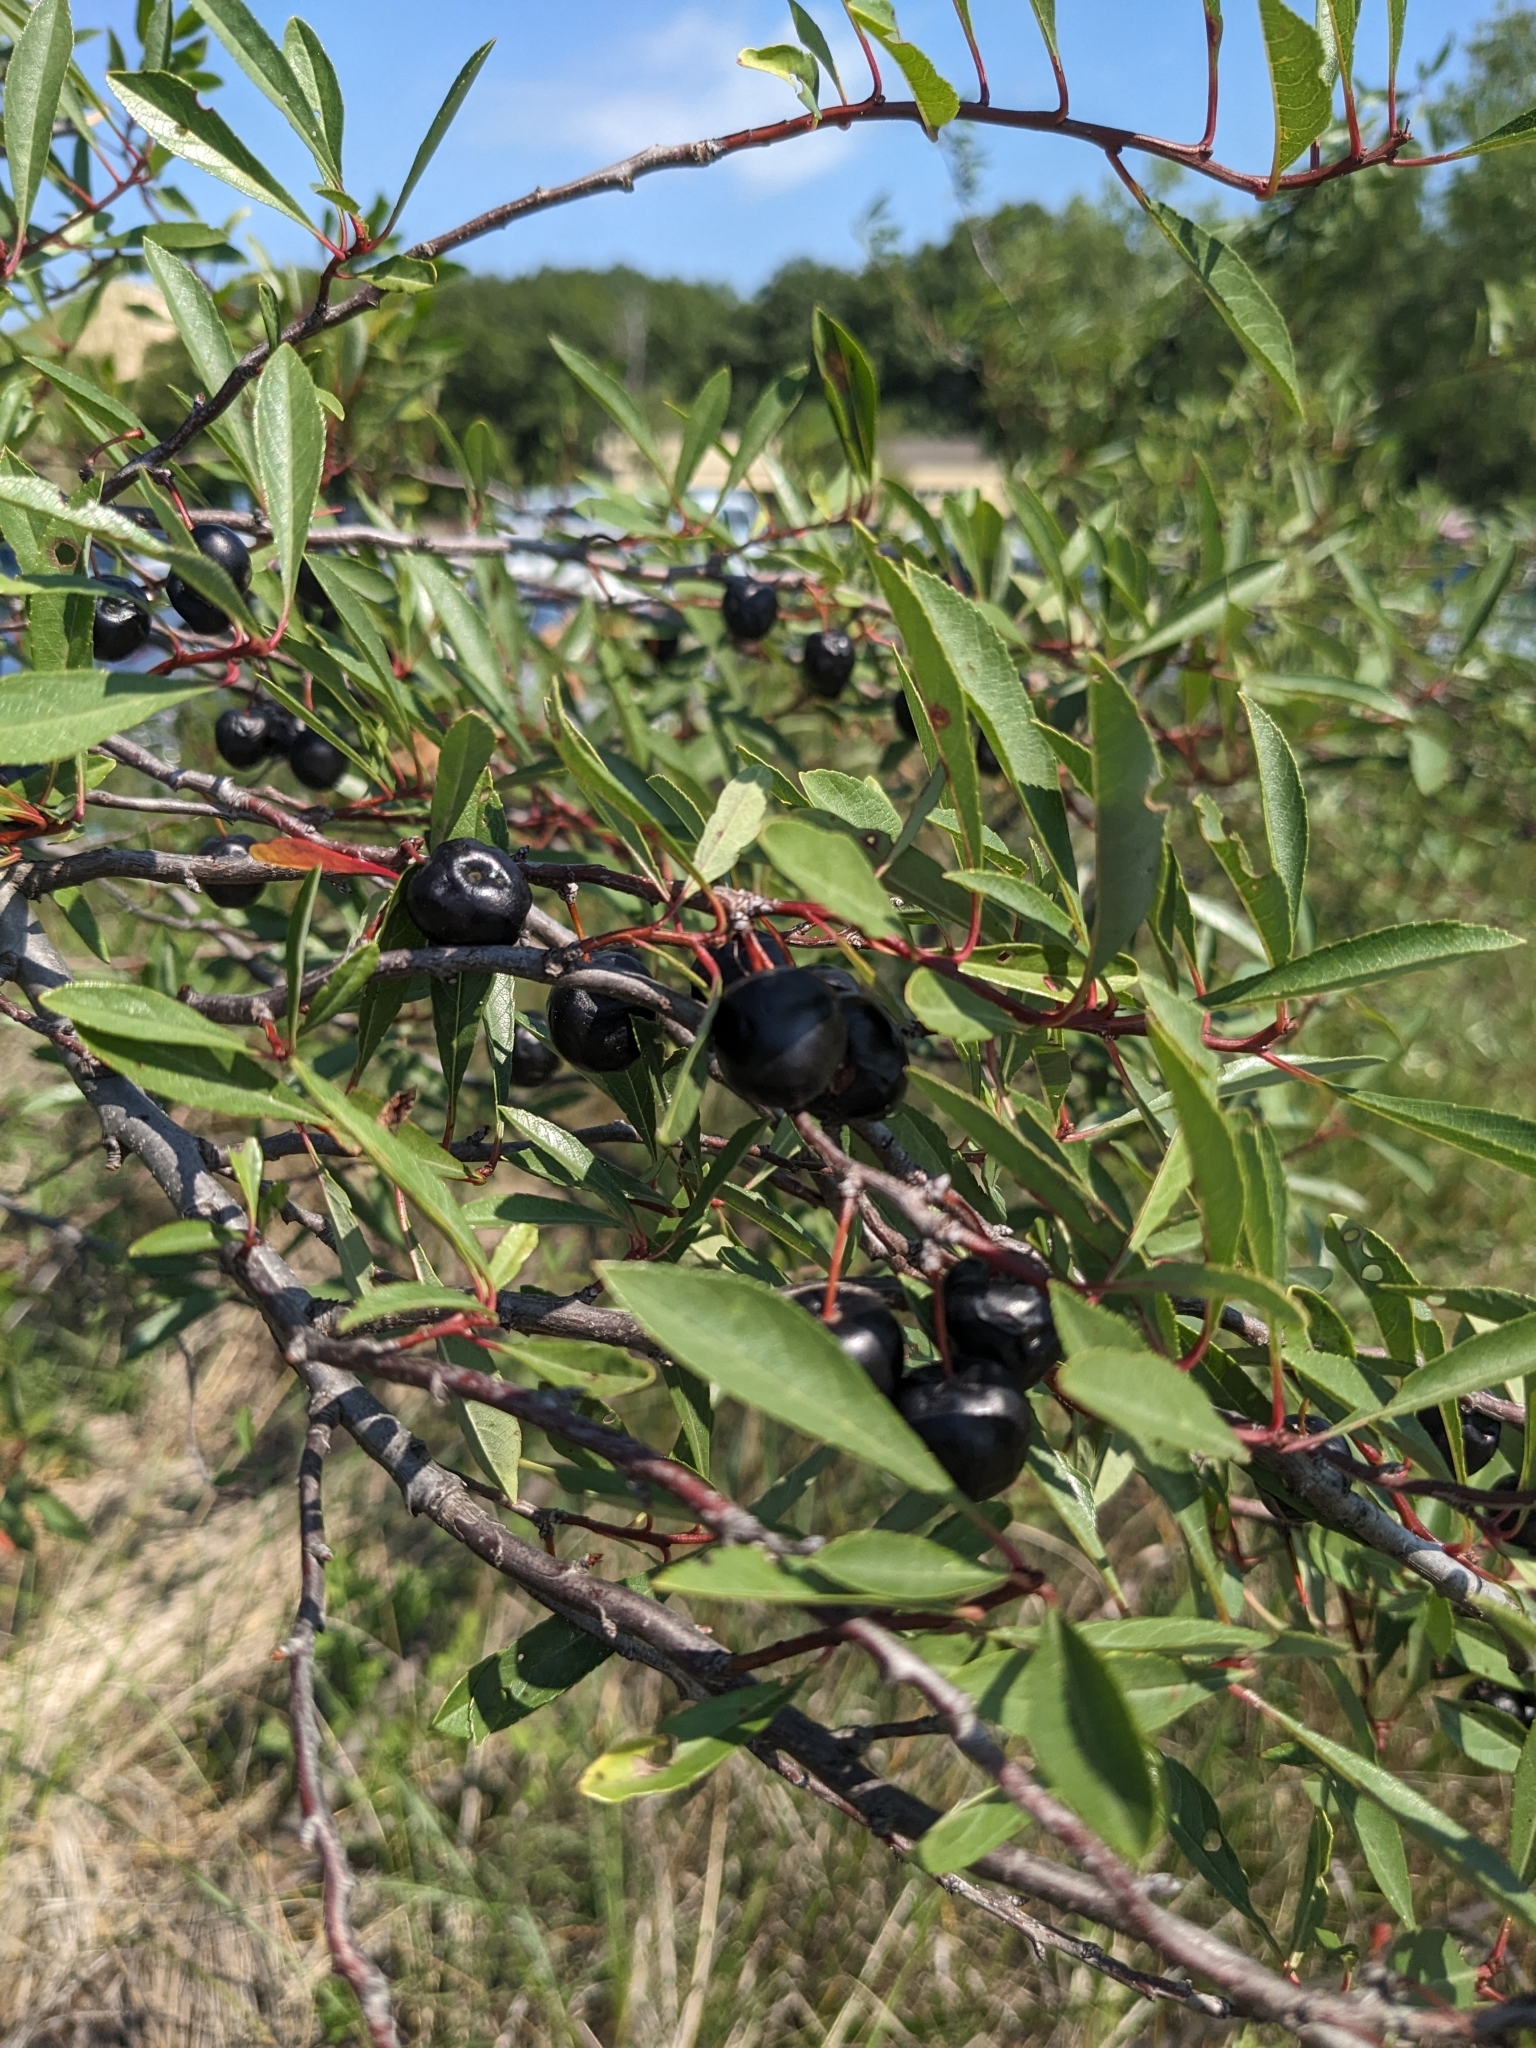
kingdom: Plantae
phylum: Tracheophyta
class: Magnoliopsida
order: Rosales
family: Rosaceae
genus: Prunus
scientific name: Prunus pumila
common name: Dwarf cherry
